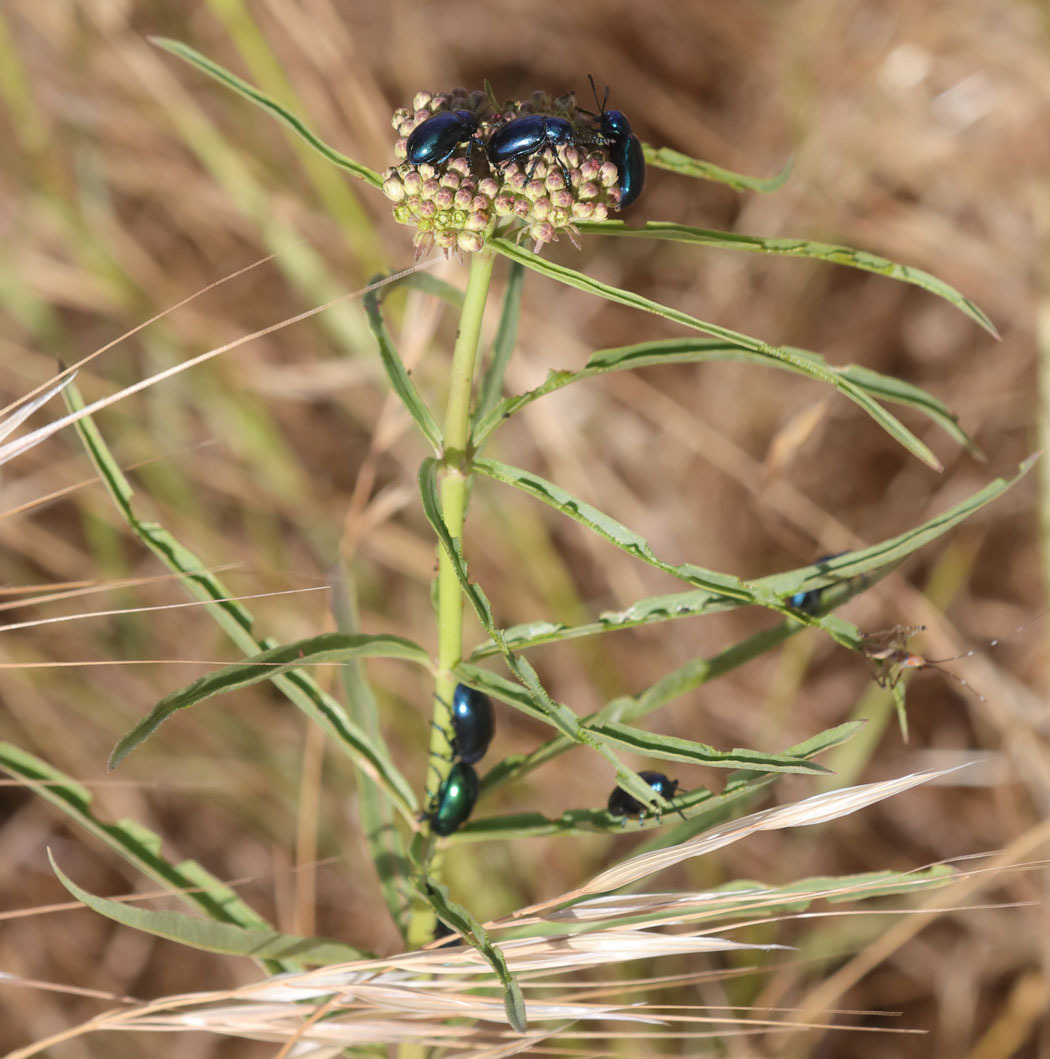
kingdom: Plantae
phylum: Tracheophyta
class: Magnoliopsida
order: Gentianales
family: Apocynaceae
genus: Asclepias
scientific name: Asclepias fascicularis
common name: Mexican milkweed
